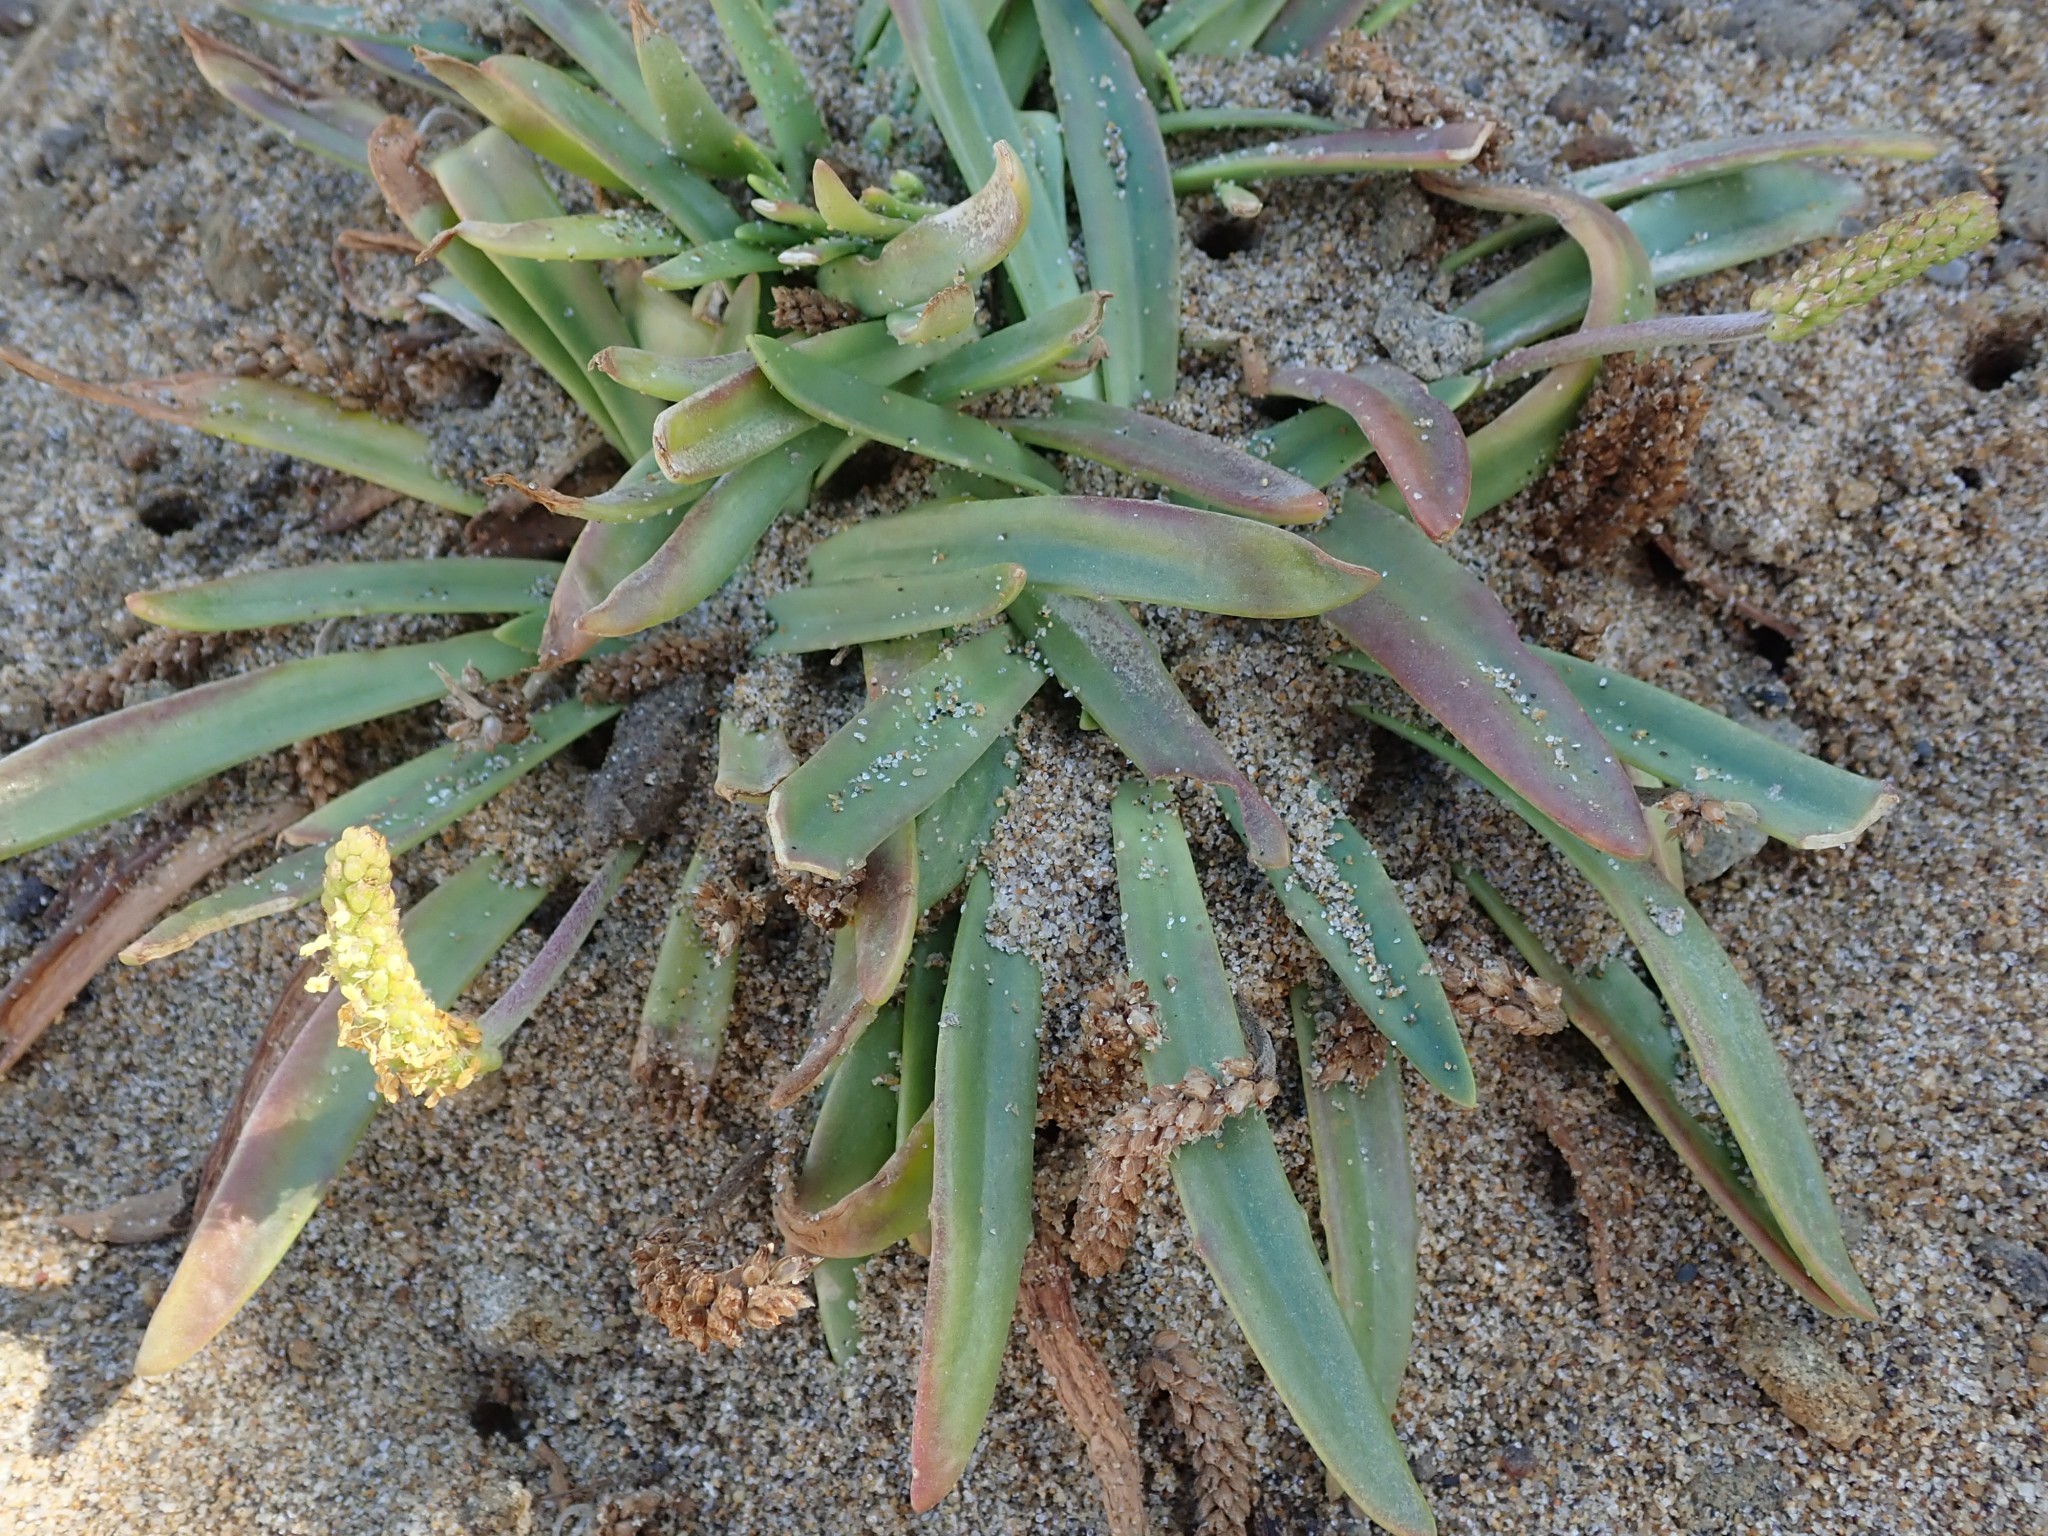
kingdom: Plantae
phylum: Tracheophyta
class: Magnoliopsida
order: Lamiales
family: Plantaginaceae
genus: Plantago
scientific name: Plantago maritima
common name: Sea plantain
